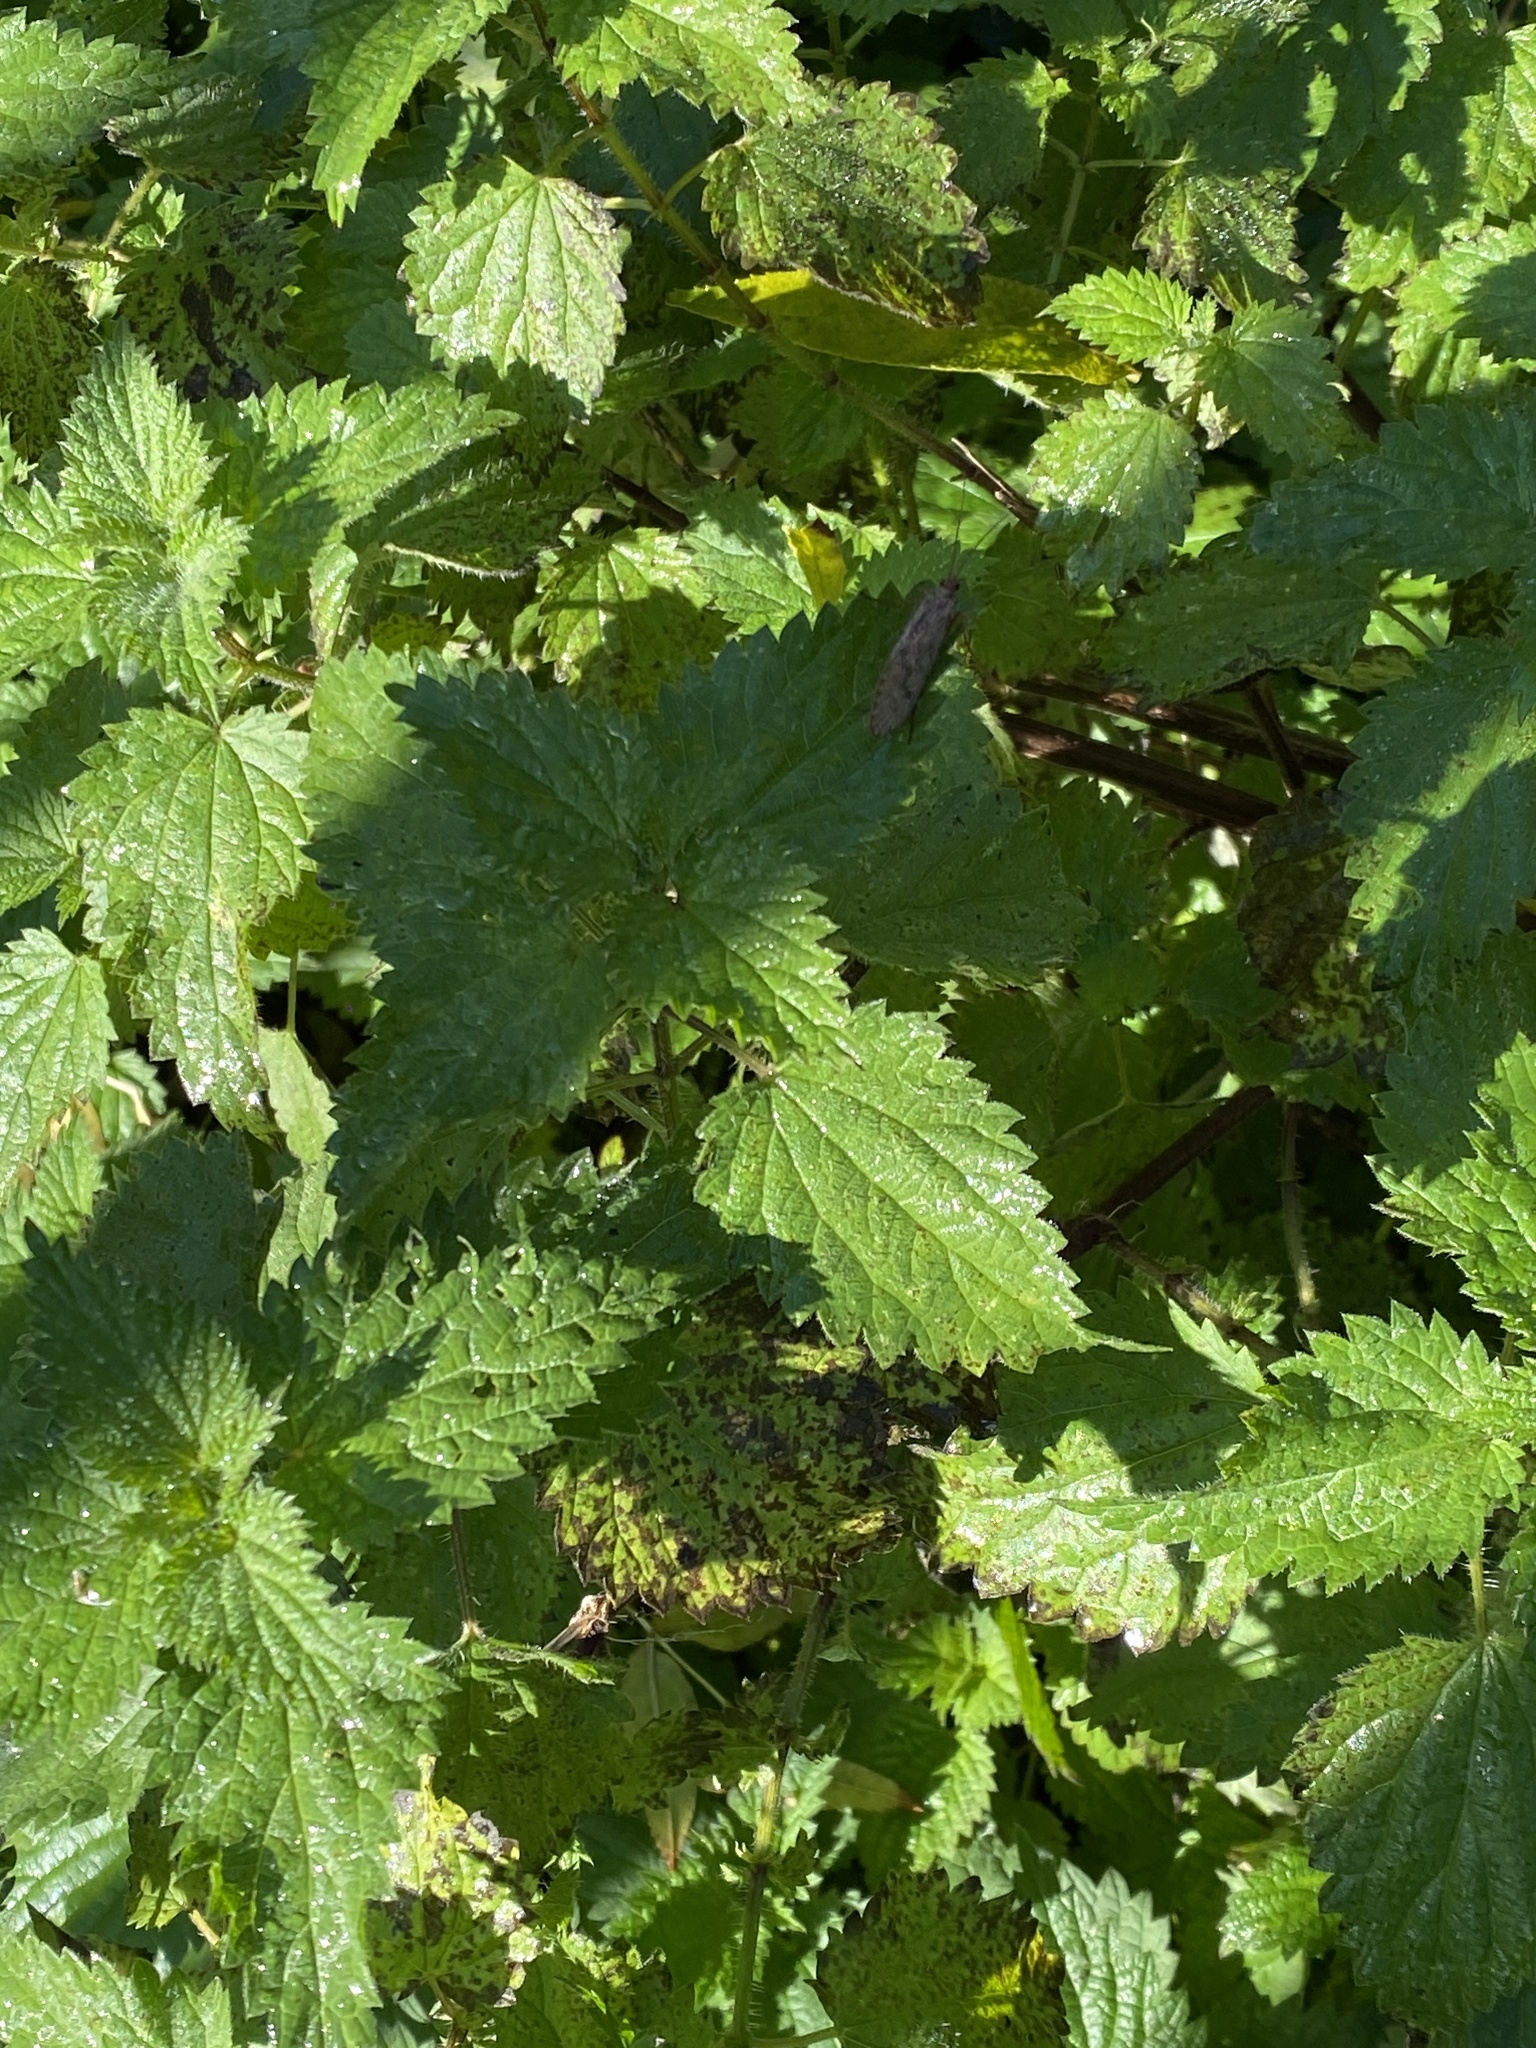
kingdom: Plantae
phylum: Tracheophyta
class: Magnoliopsida
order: Rosales
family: Urticaceae
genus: Urtica
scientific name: Urtica dioica
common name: Common nettle
